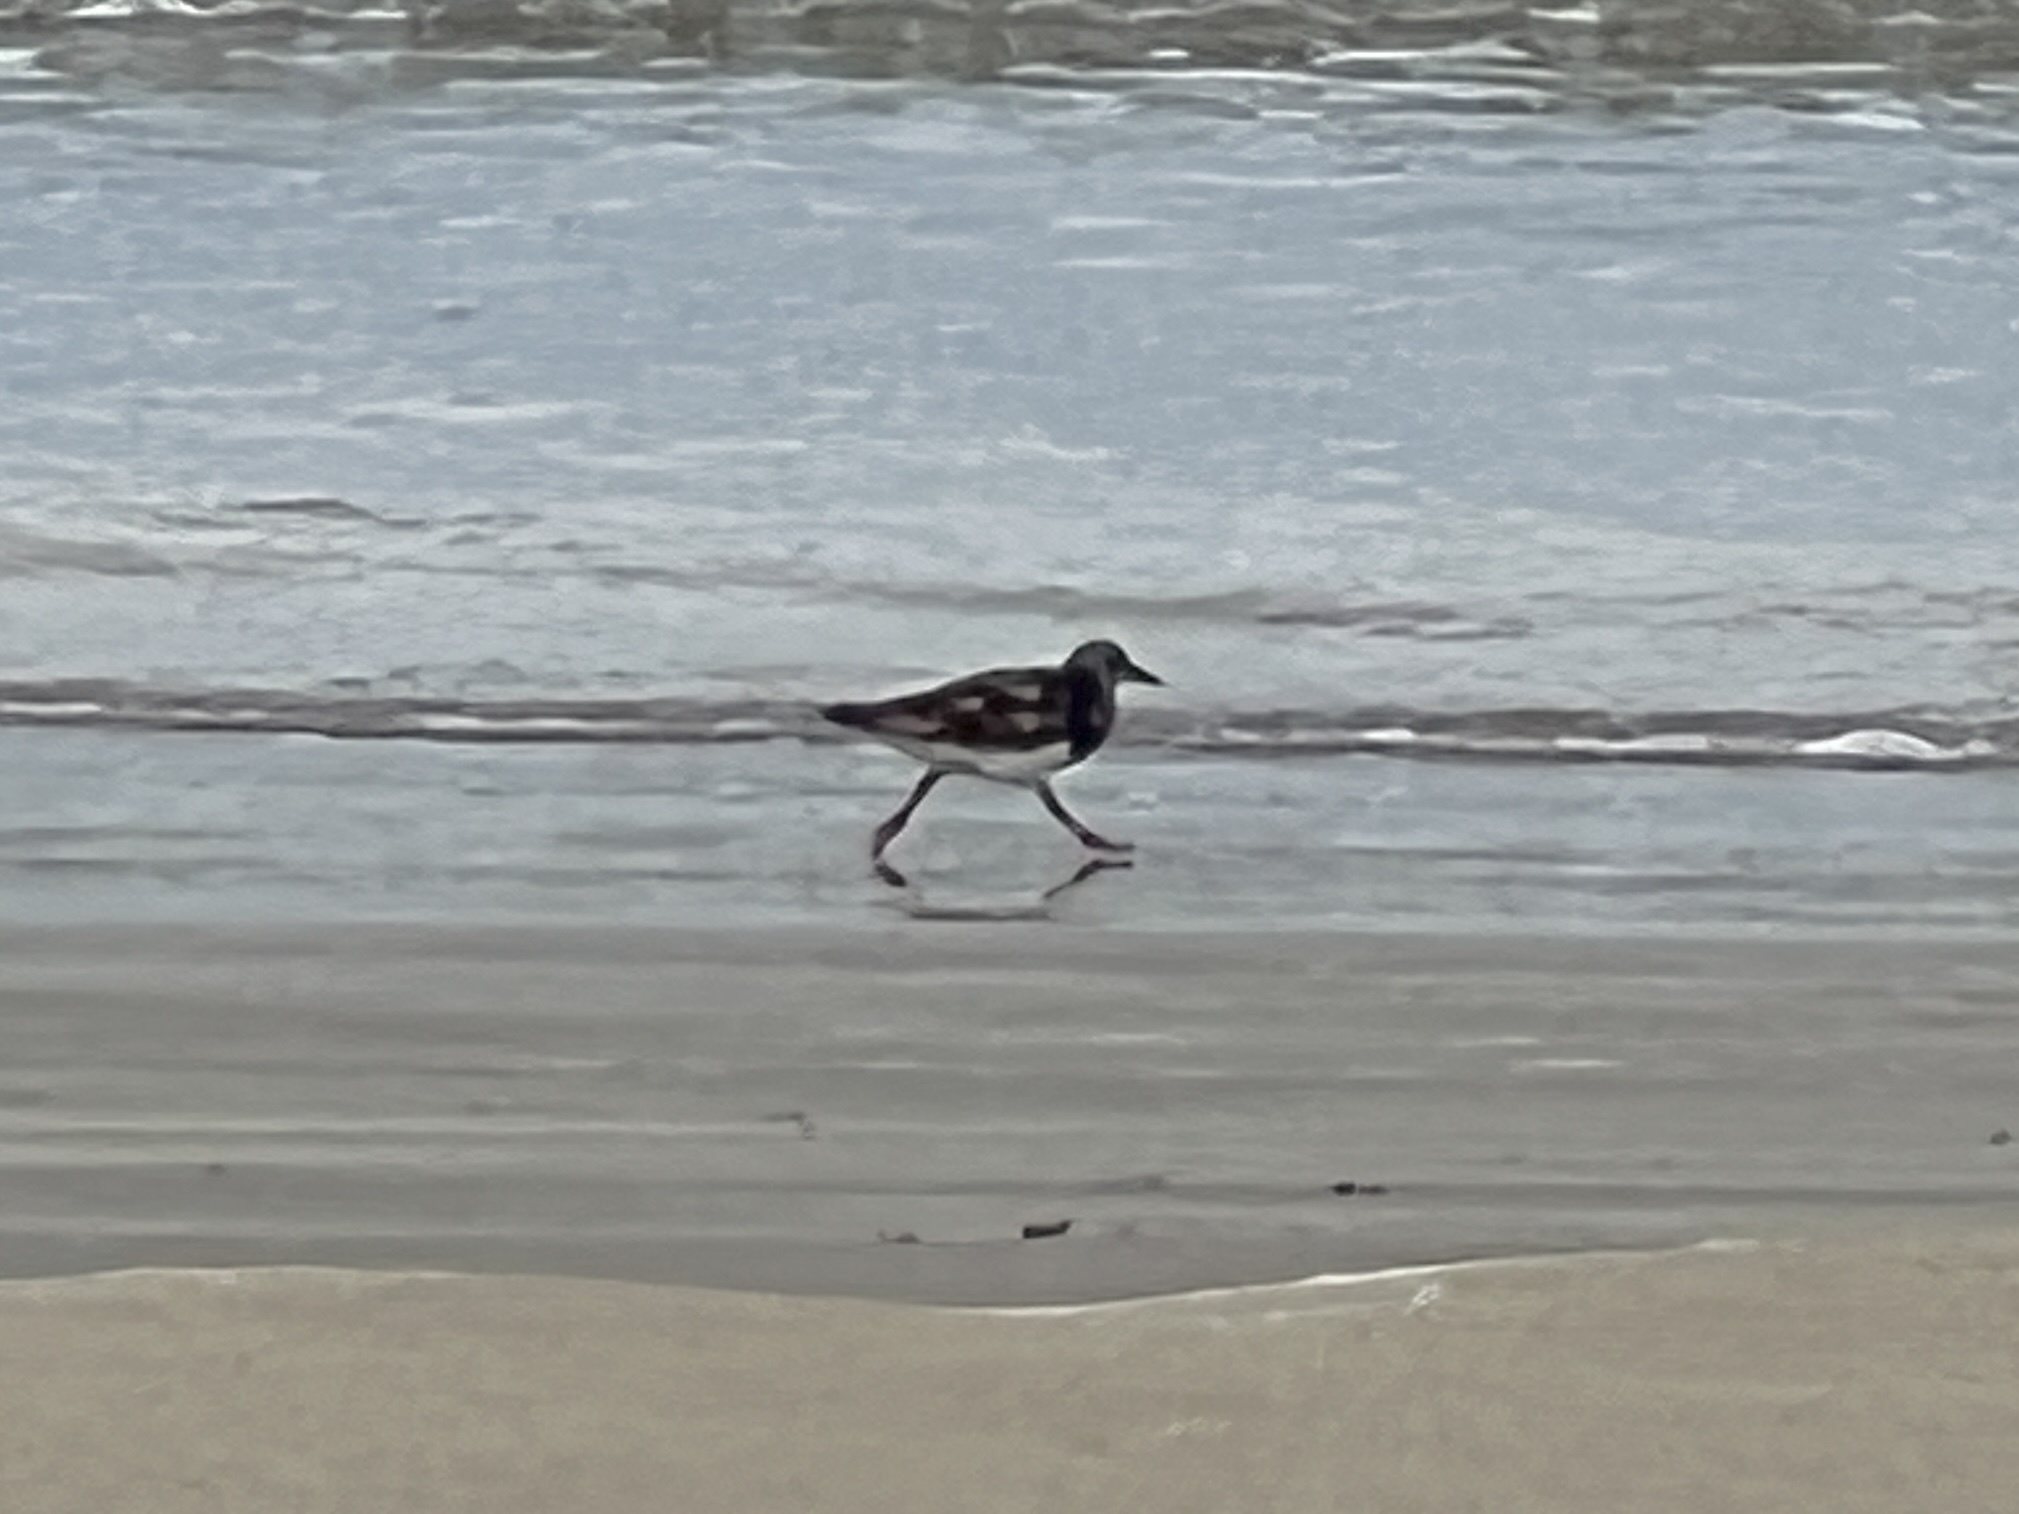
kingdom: Animalia
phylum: Chordata
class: Aves
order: Charadriiformes
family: Scolopacidae
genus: Arenaria
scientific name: Arenaria interpres
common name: Ruddy turnstone
